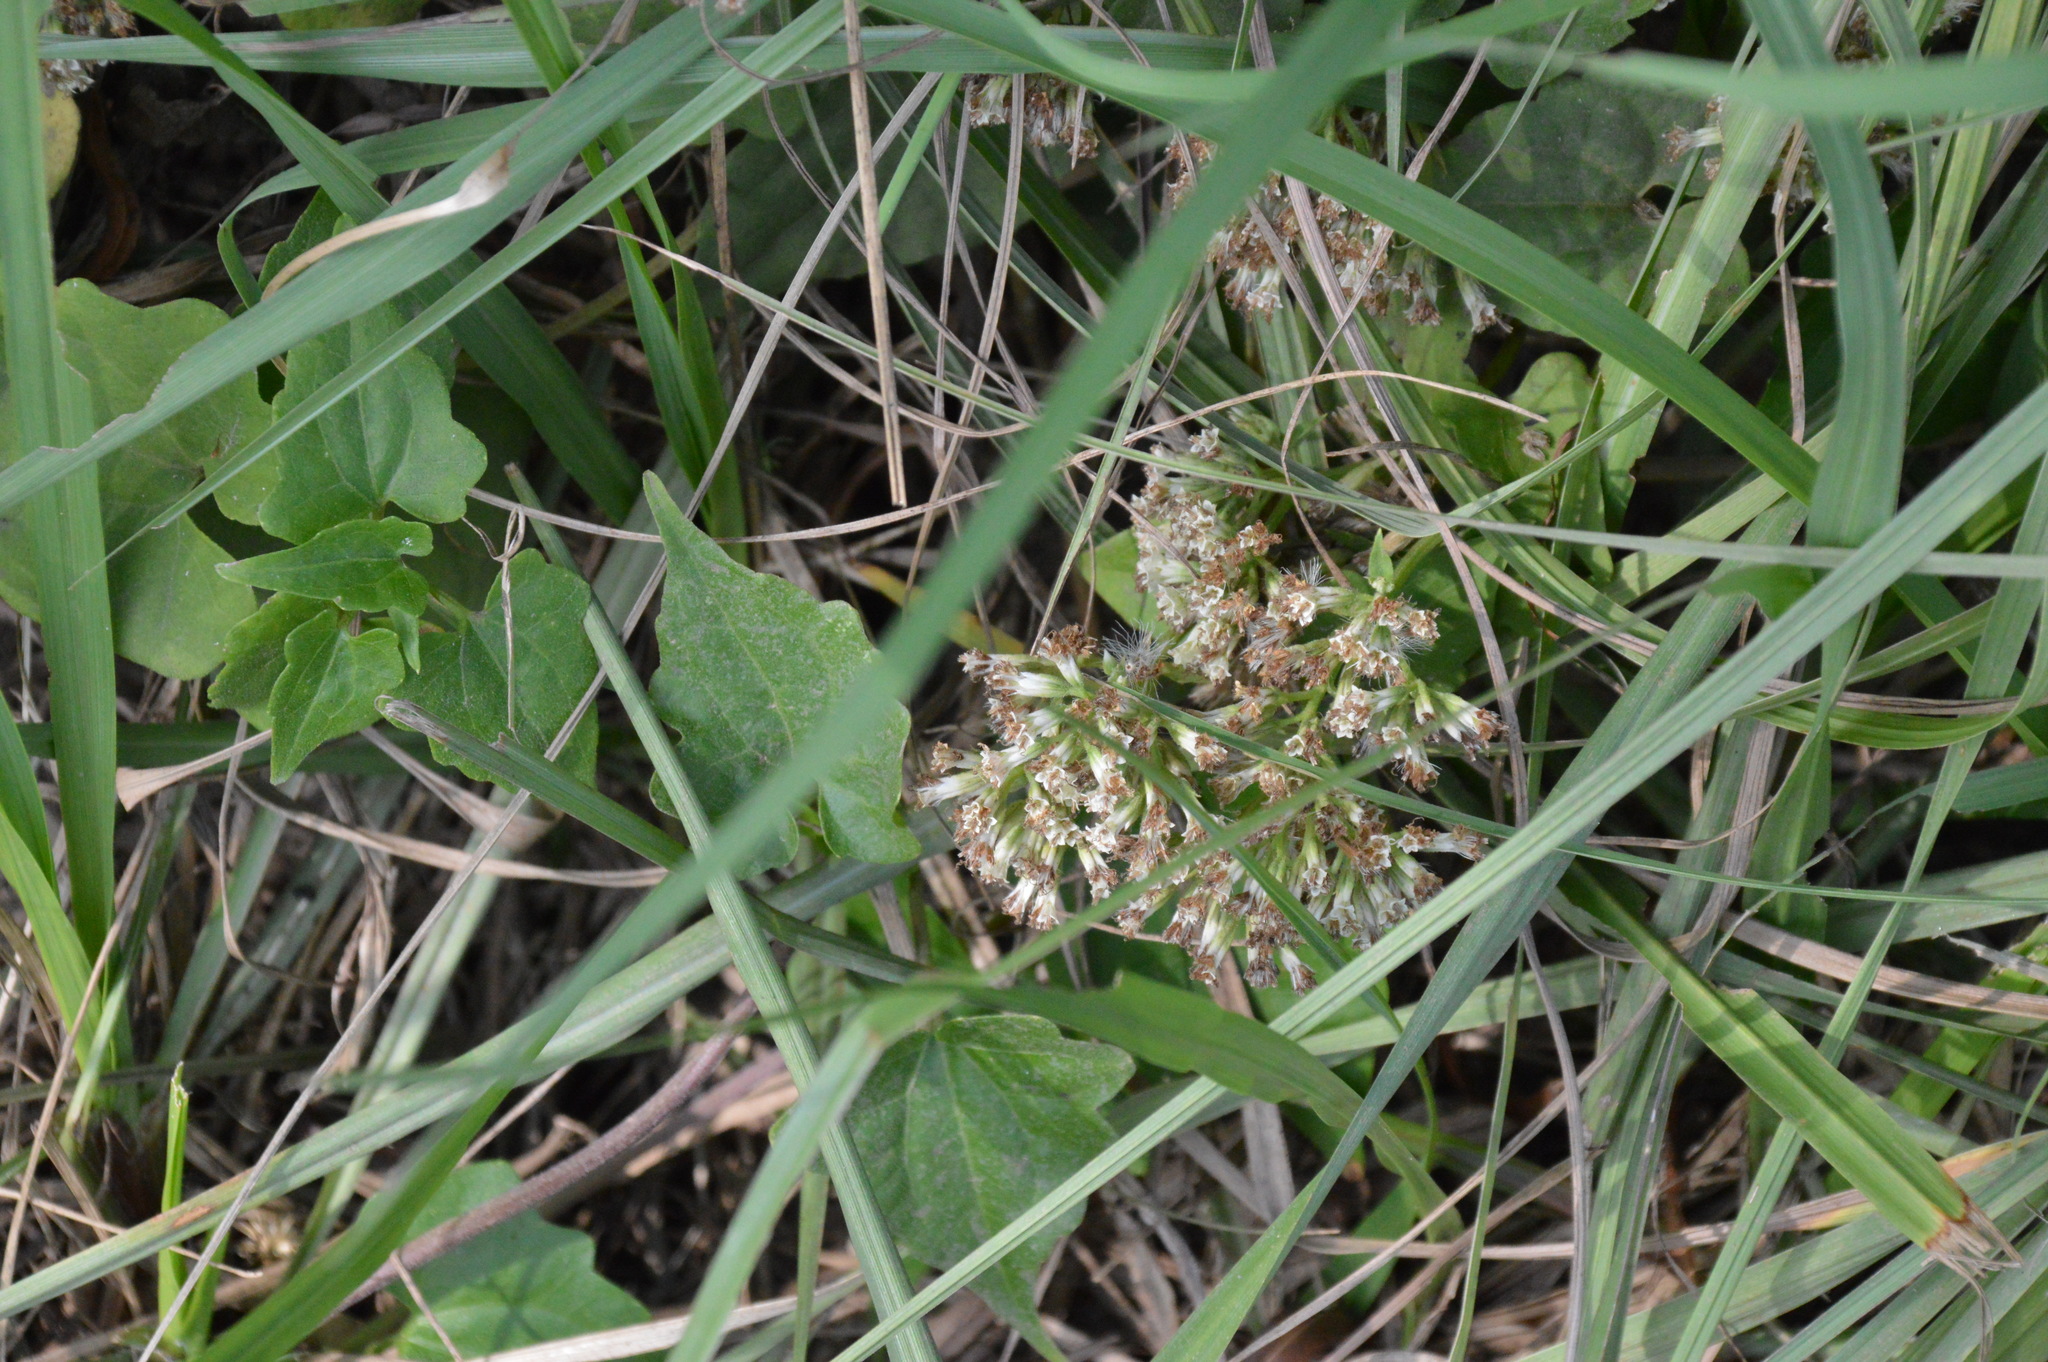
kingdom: Plantae
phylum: Tracheophyta
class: Magnoliopsida
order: Asterales
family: Asteraceae
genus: Mikania
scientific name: Mikania scandens
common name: Climbing hempvine
